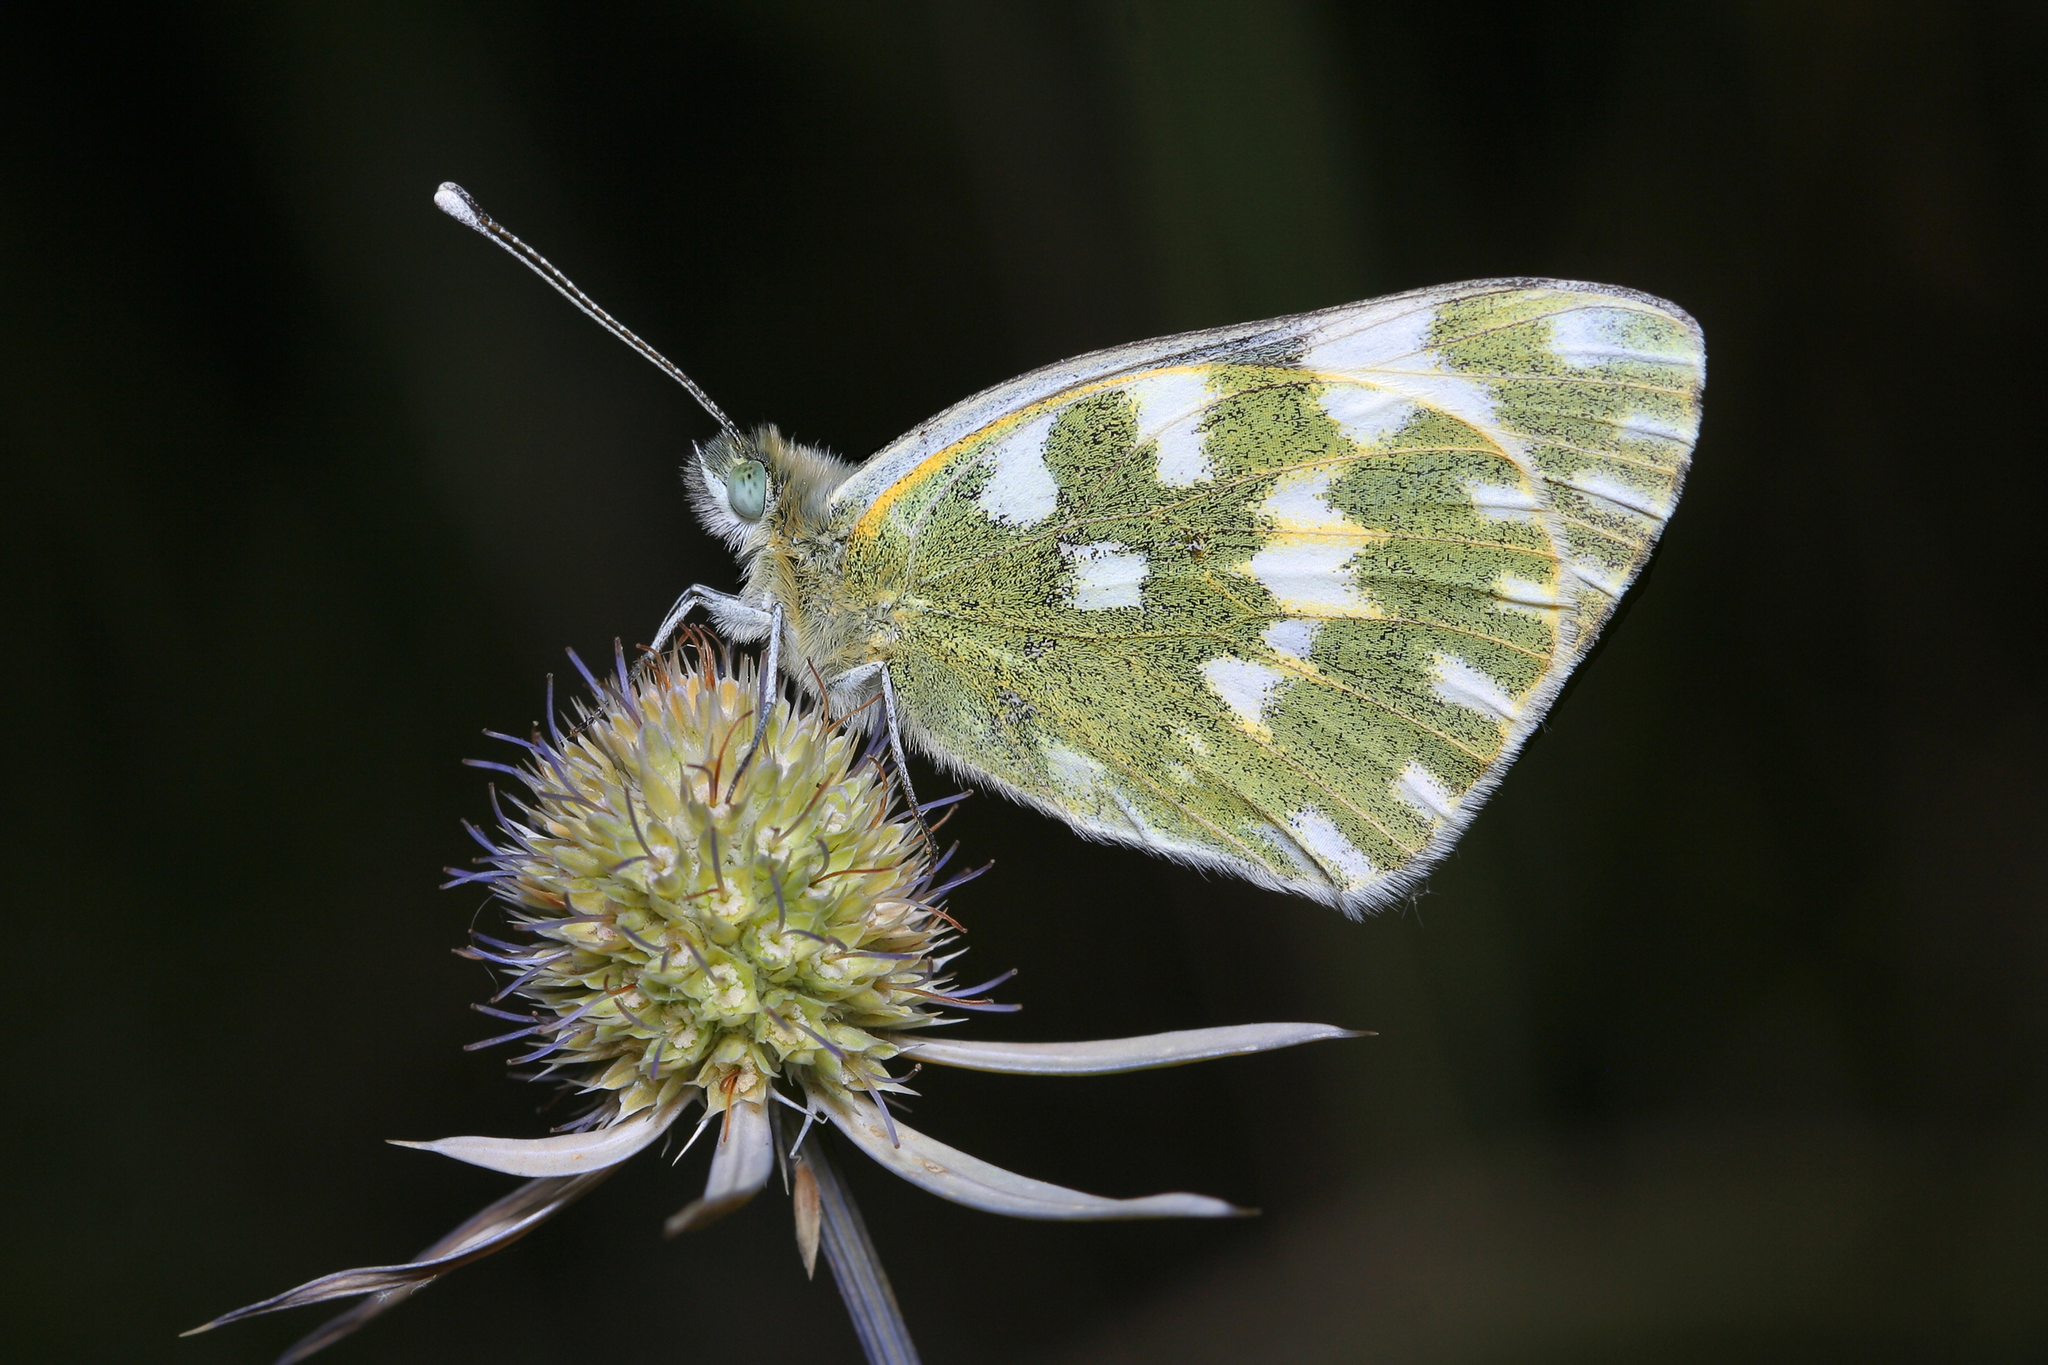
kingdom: Animalia
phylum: Arthropoda
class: Insecta
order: Lepidoptera
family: Pieridae
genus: Pontia
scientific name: Pontia edusa
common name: Eastern bath white
